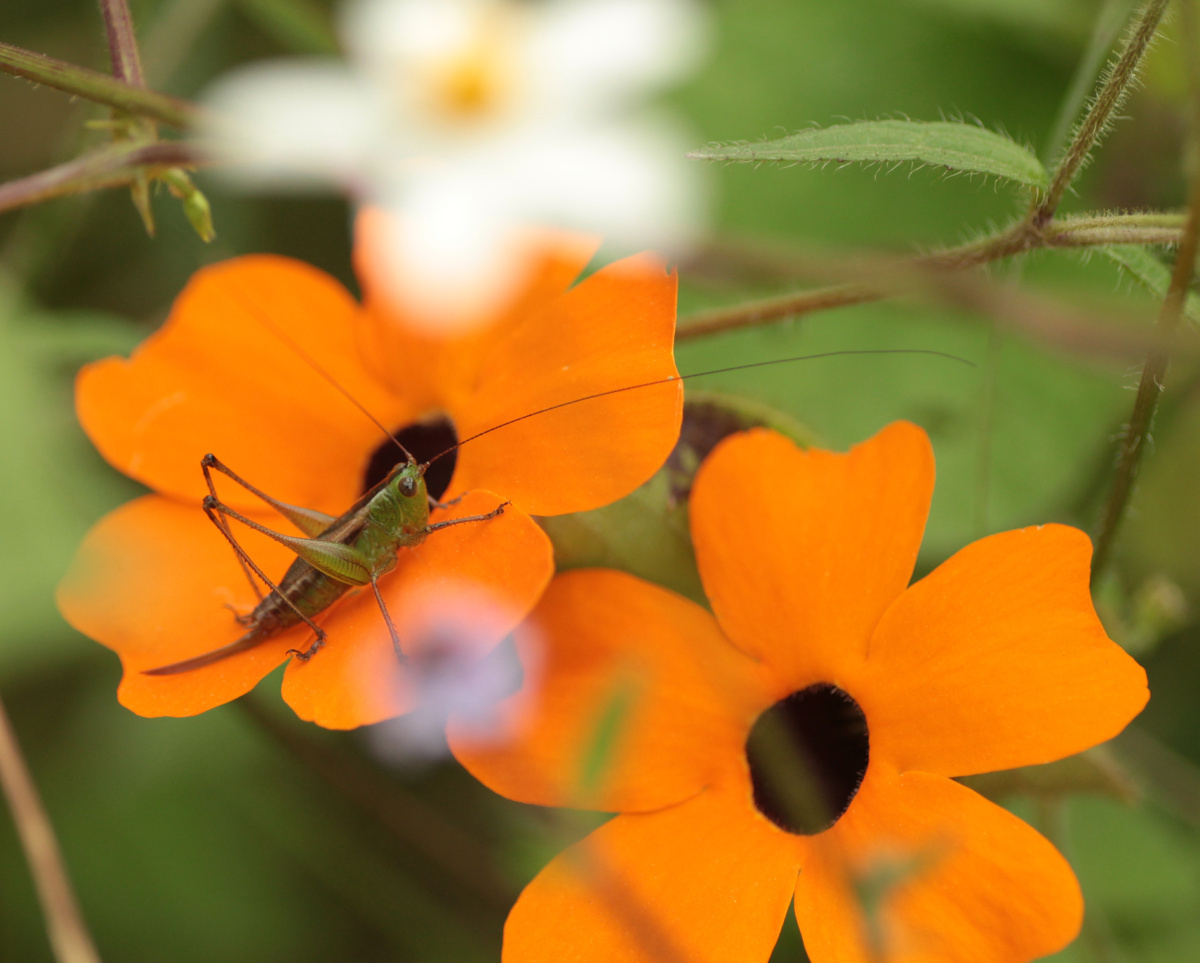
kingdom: Plantae
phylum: Tracheophyta
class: Magnoliopsida
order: Lamiales
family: Acanthaceae
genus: Thunbergia
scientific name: Thunbergia alata
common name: Blackeyed susan vine
